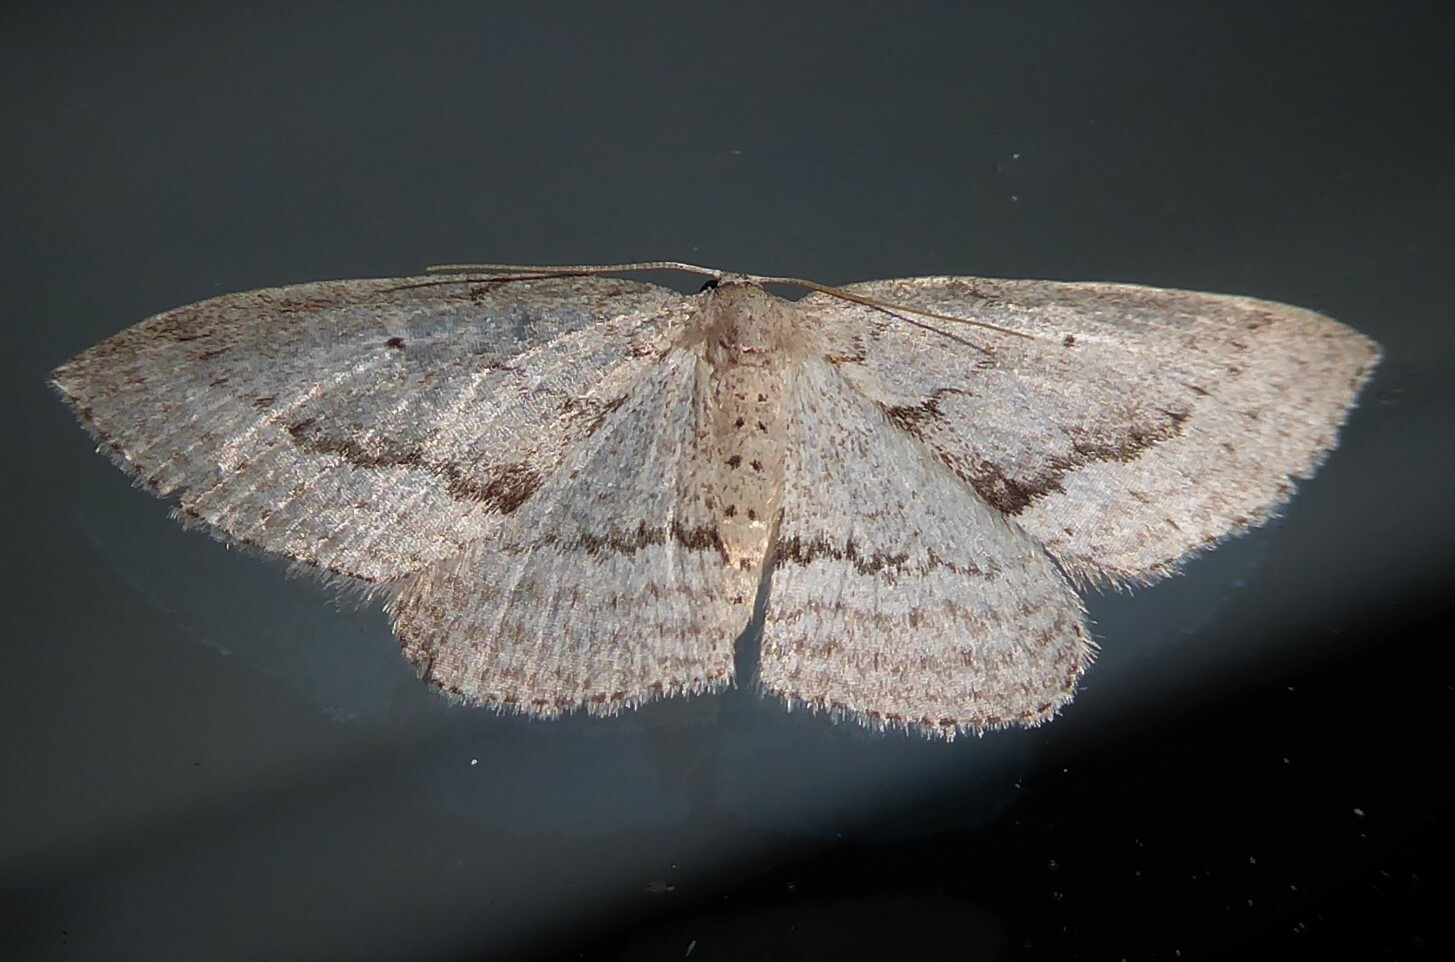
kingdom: Animalia
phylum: Arthropoda
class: Insecta
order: Lepidoptera
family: Geometridae
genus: Poecilasthena
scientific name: Poecilasthena schistaria
